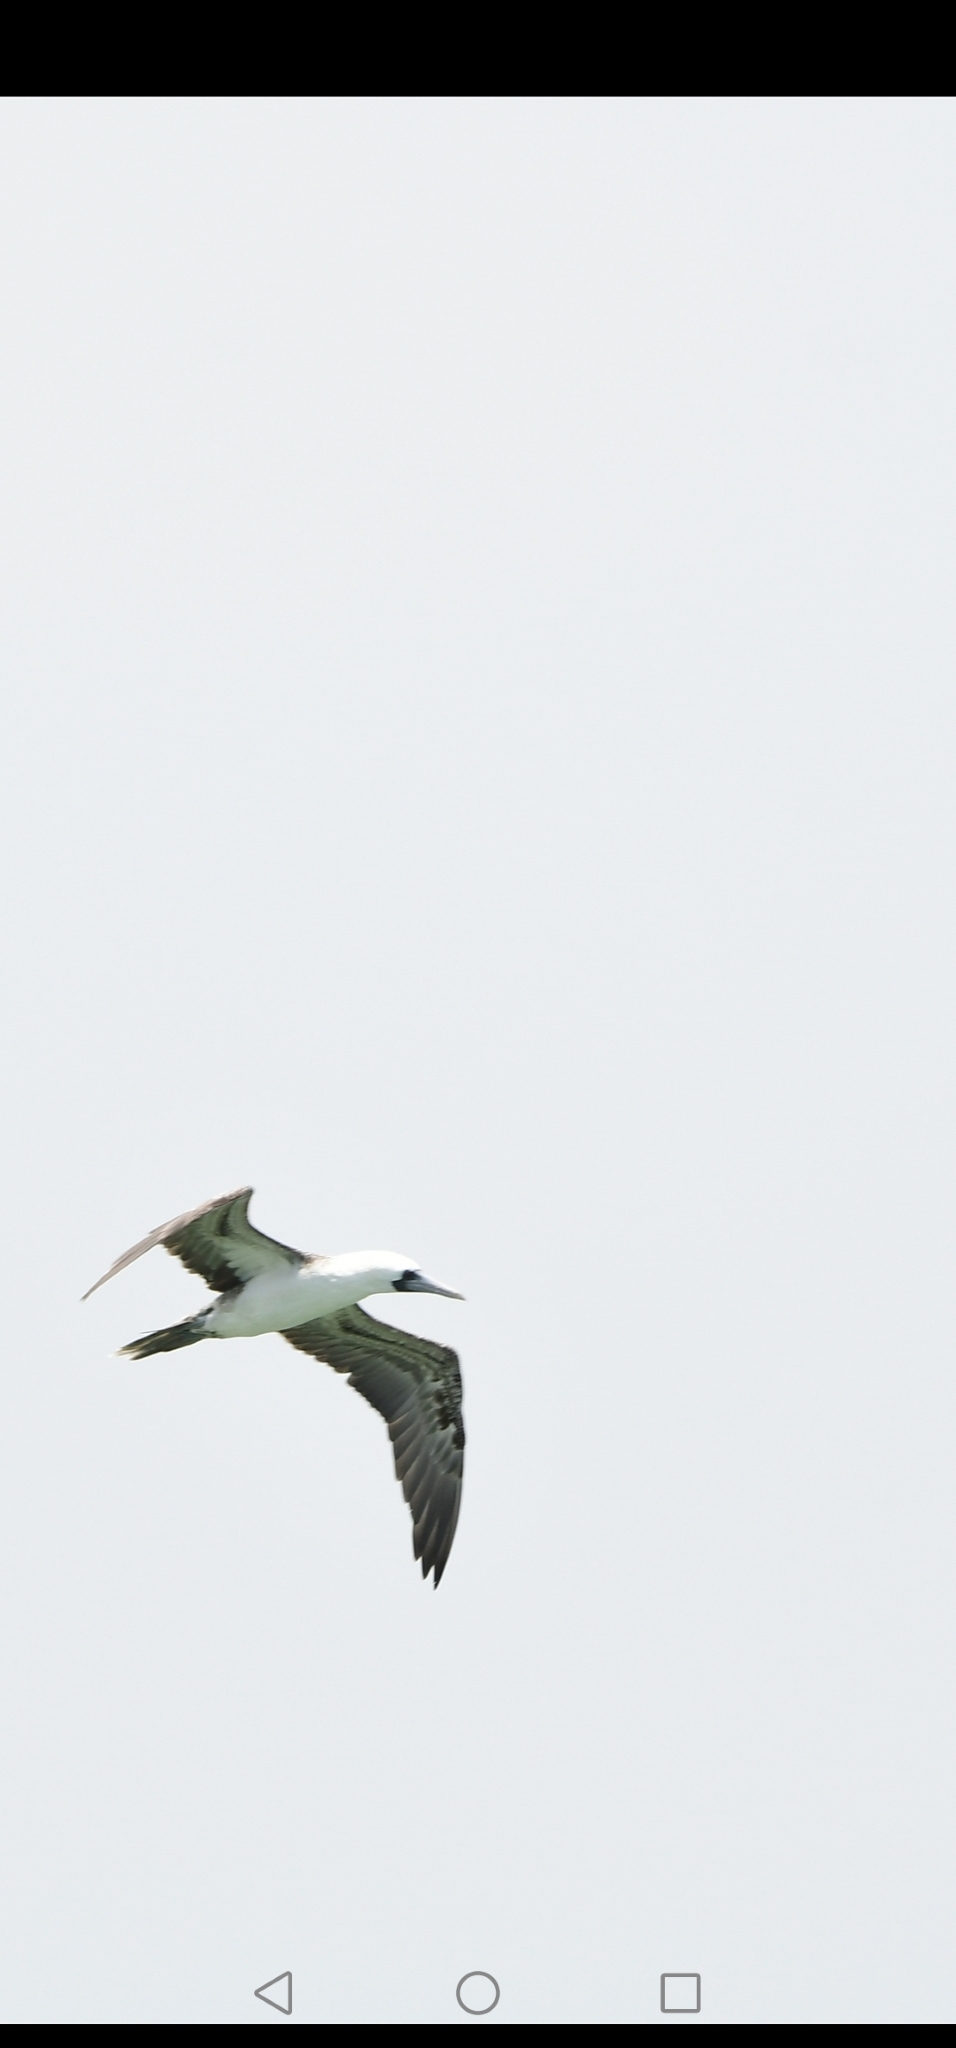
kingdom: Animalia
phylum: Chordata
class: Aves
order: Suliformes
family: Sulidae
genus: Sula
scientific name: Sula variegata
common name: Peruvian booby
